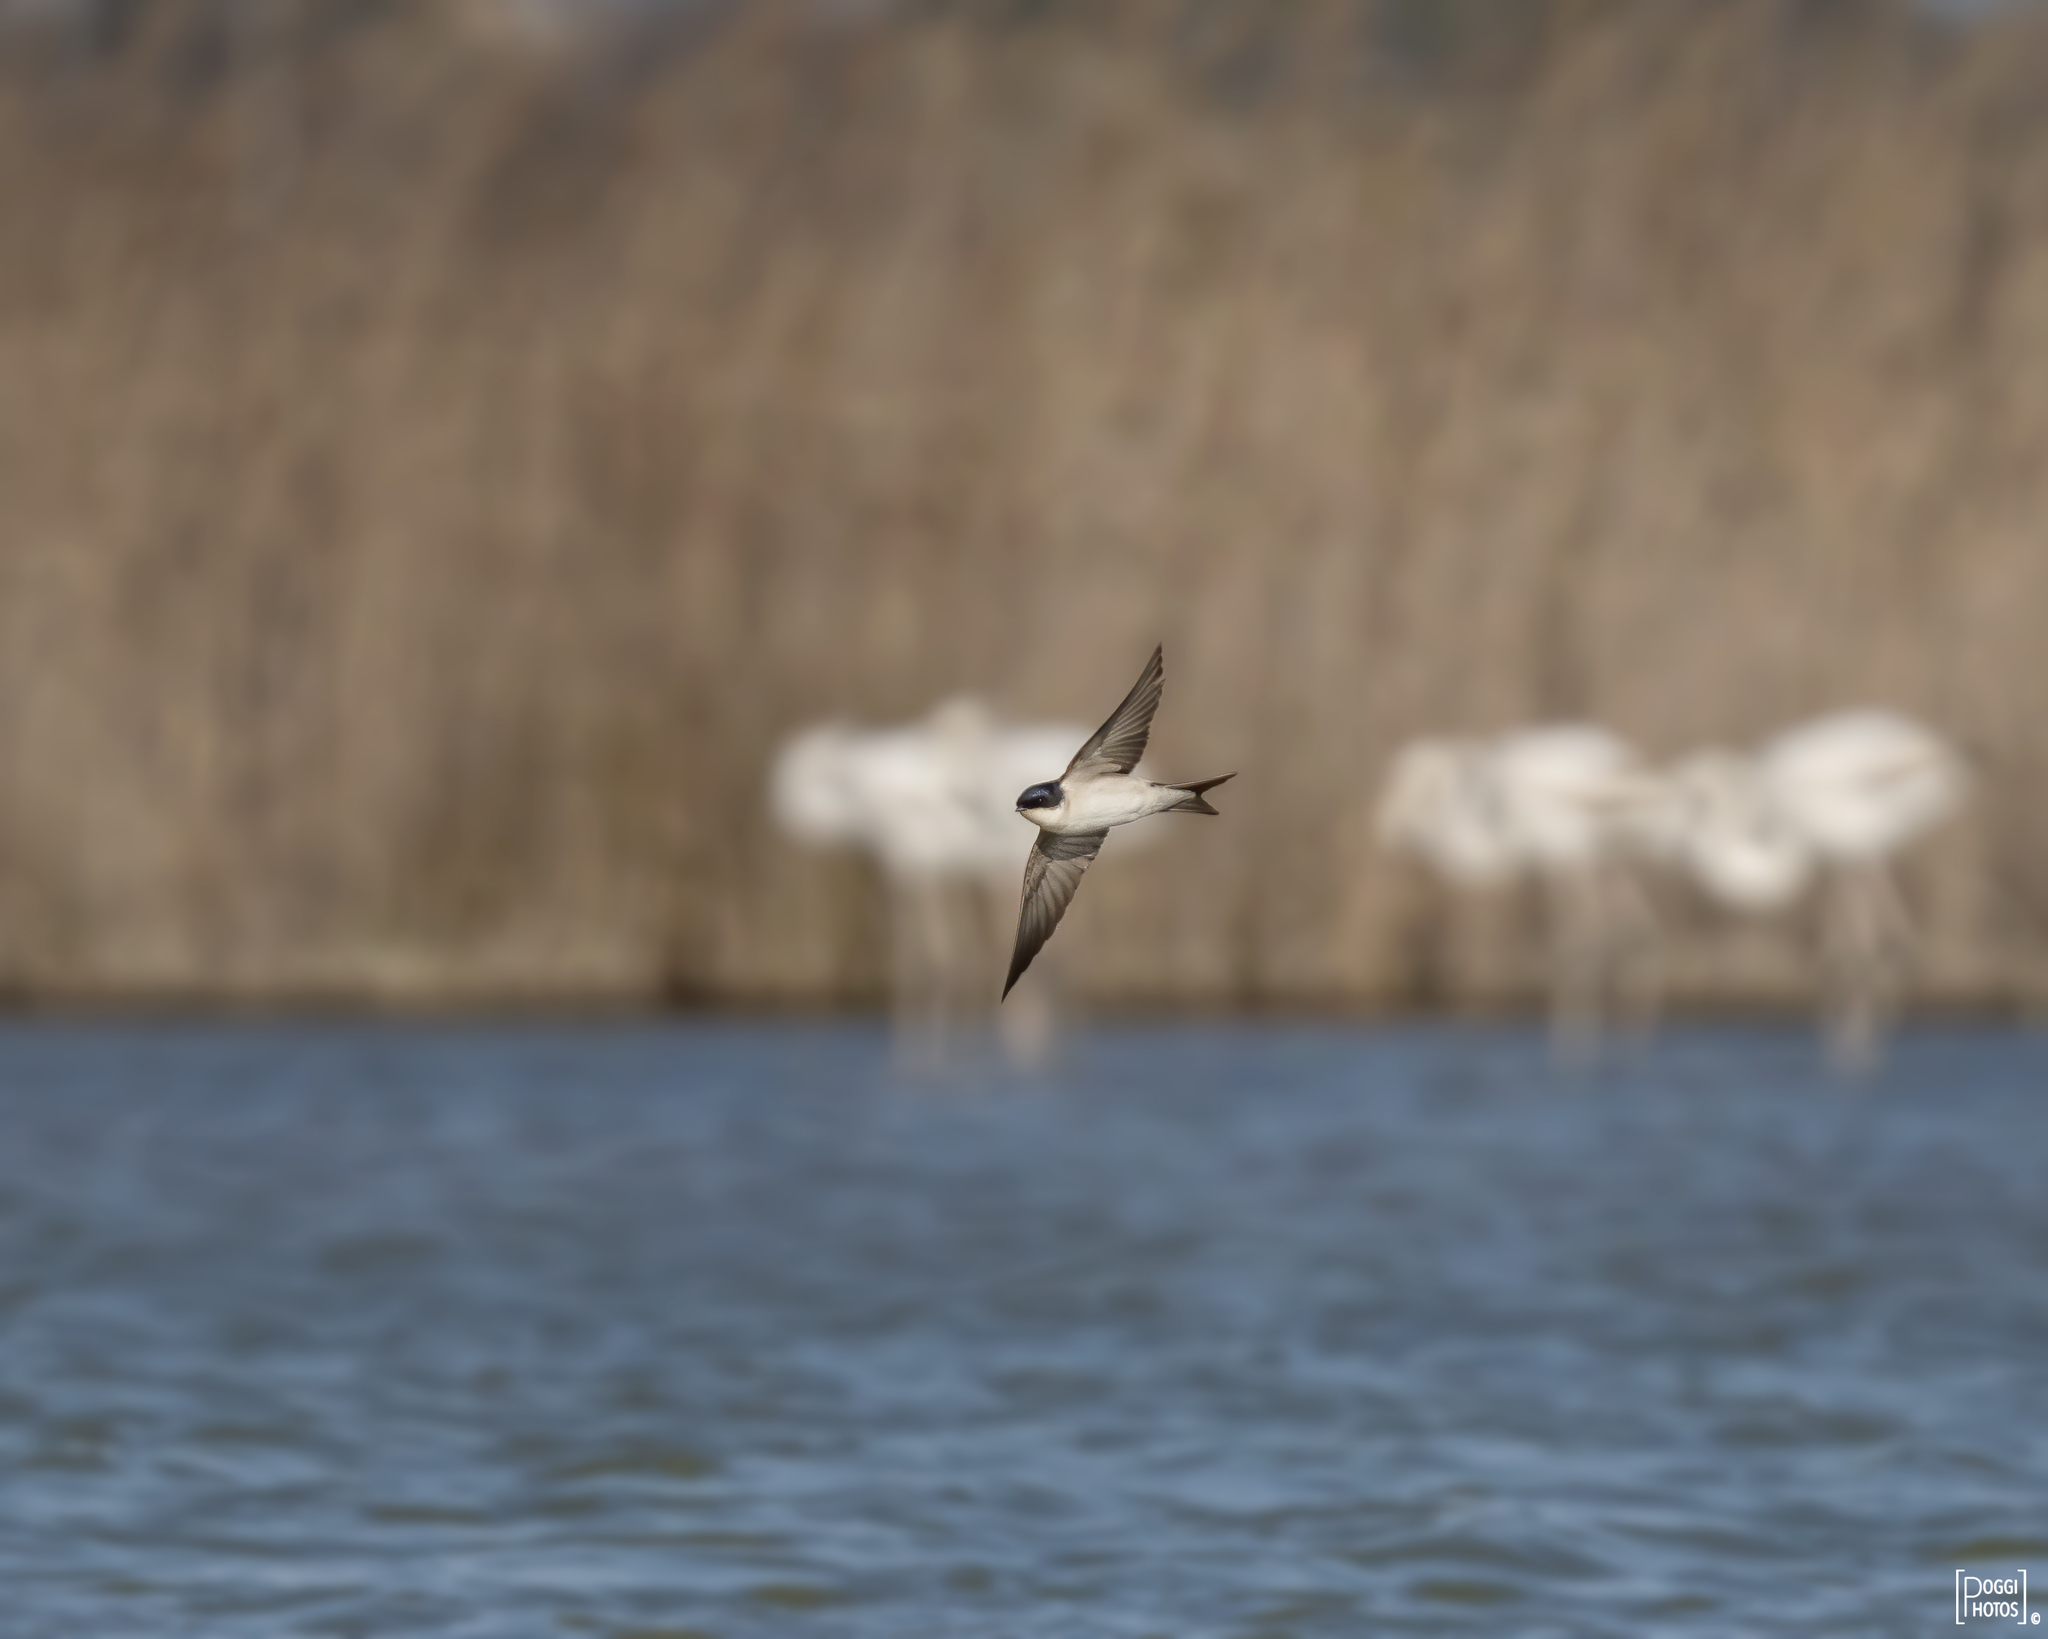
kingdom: Animalia
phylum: Chordata
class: Aves
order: Passeriformes
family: Hirundinidae
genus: Delichon
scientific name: Delichon urbicum
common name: Common house martin
